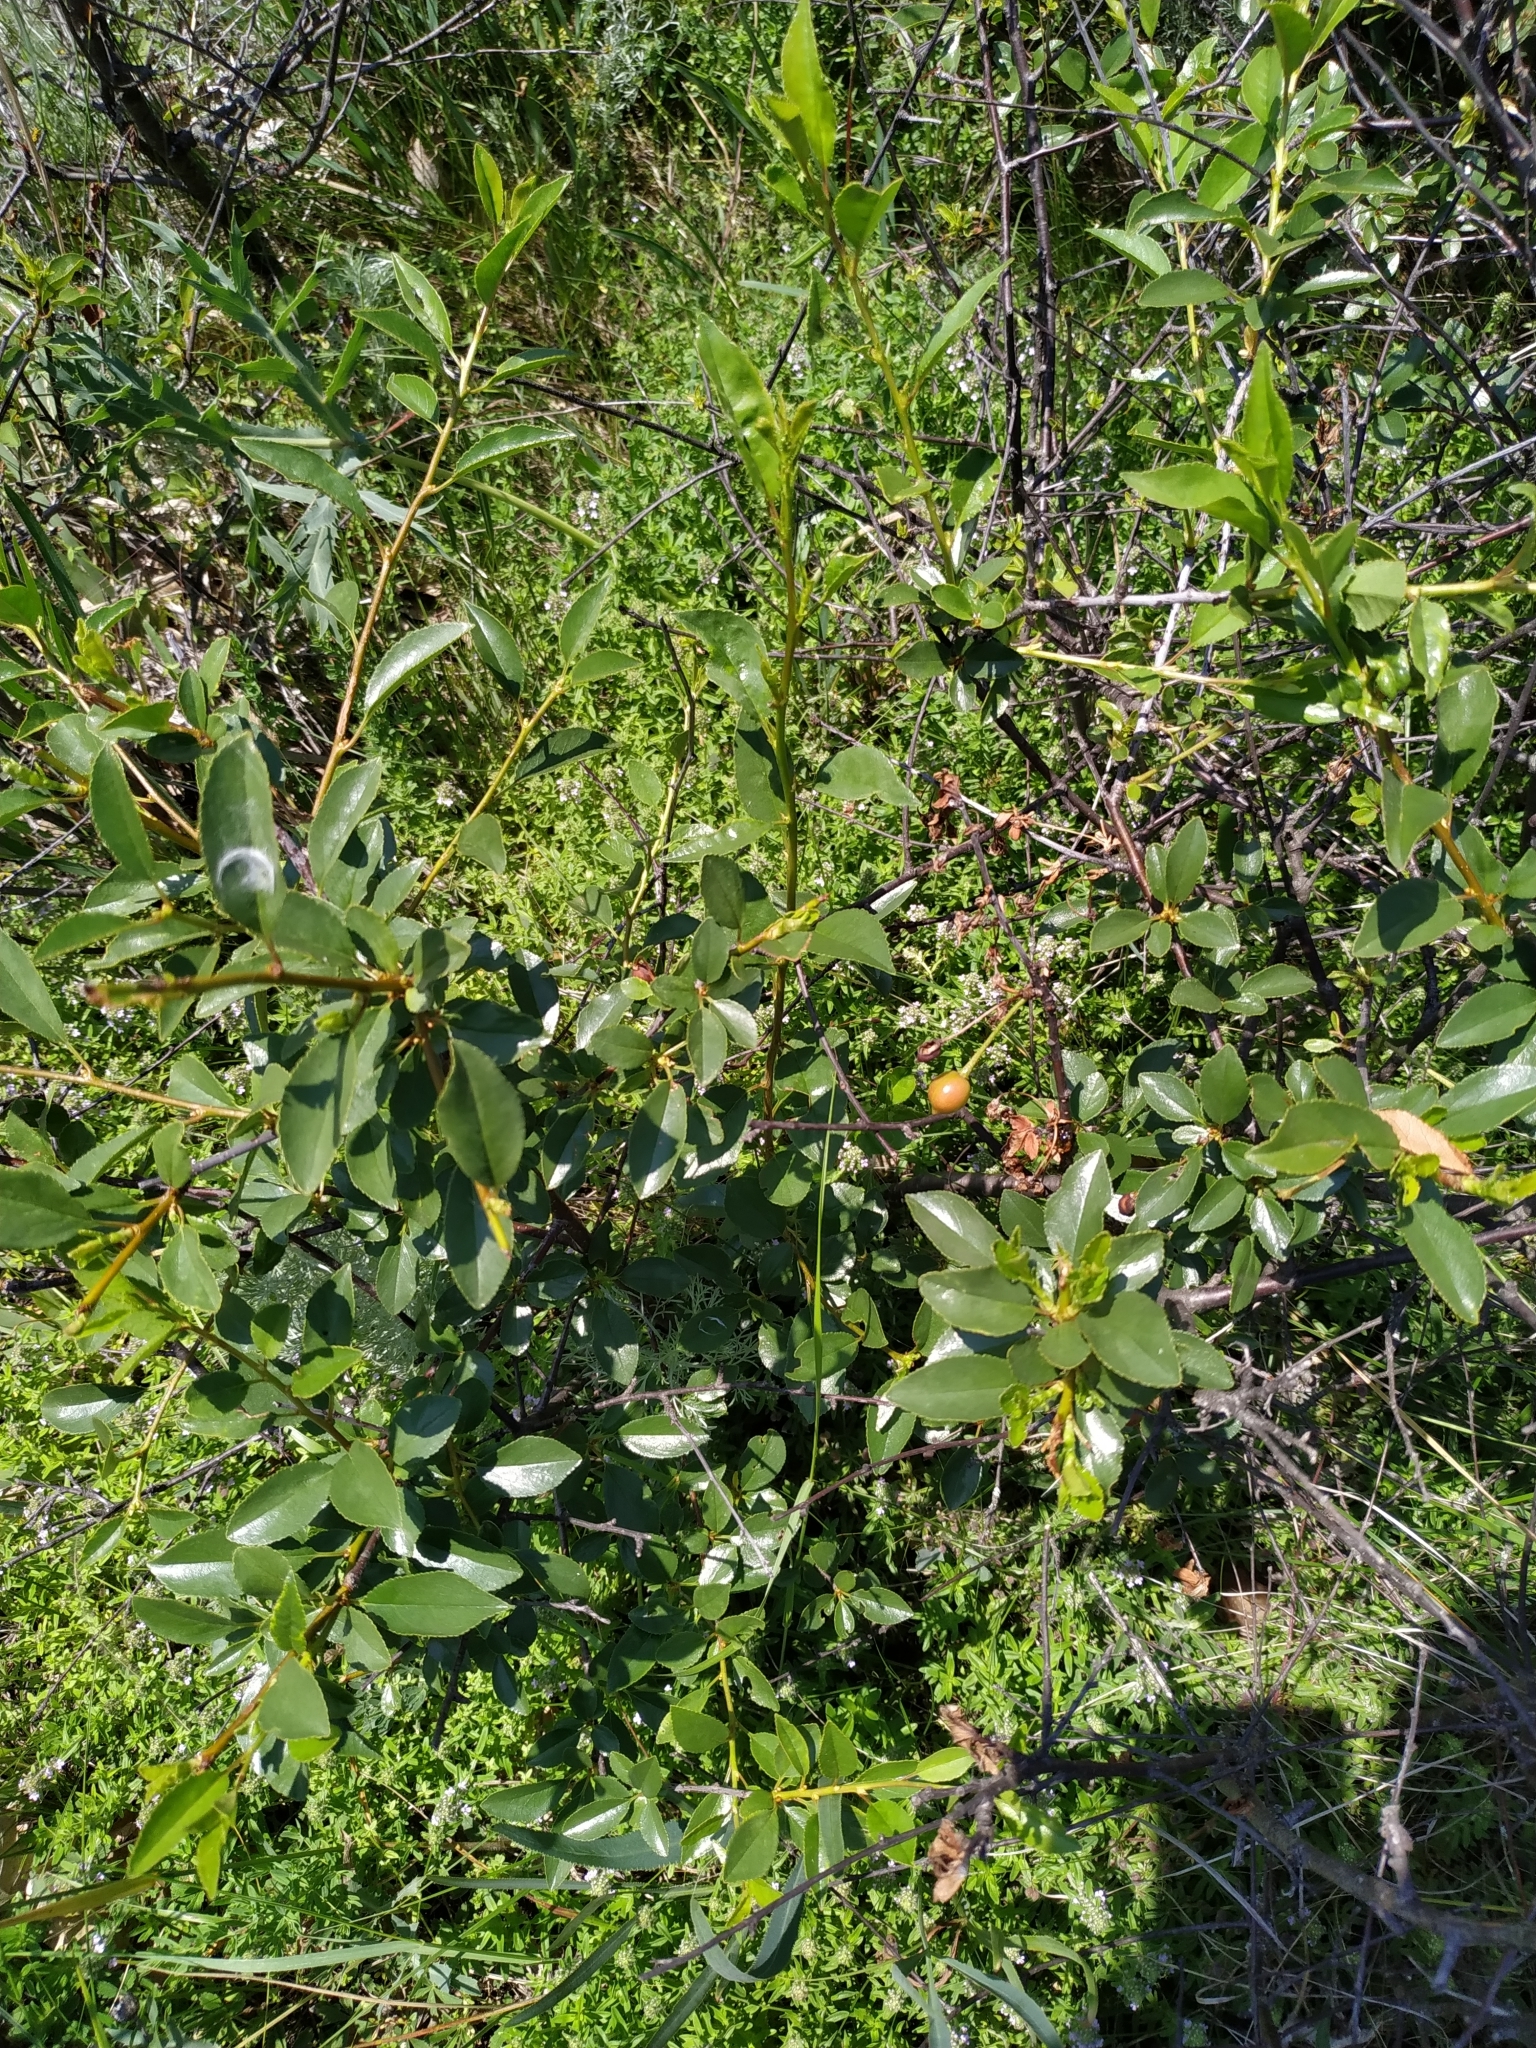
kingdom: Plantae
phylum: Tracheophyta
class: Magnoliopsida
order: Rosales
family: Rosaceae
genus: Prunus
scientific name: Prunus fruticosa
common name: European dwarf cherry
